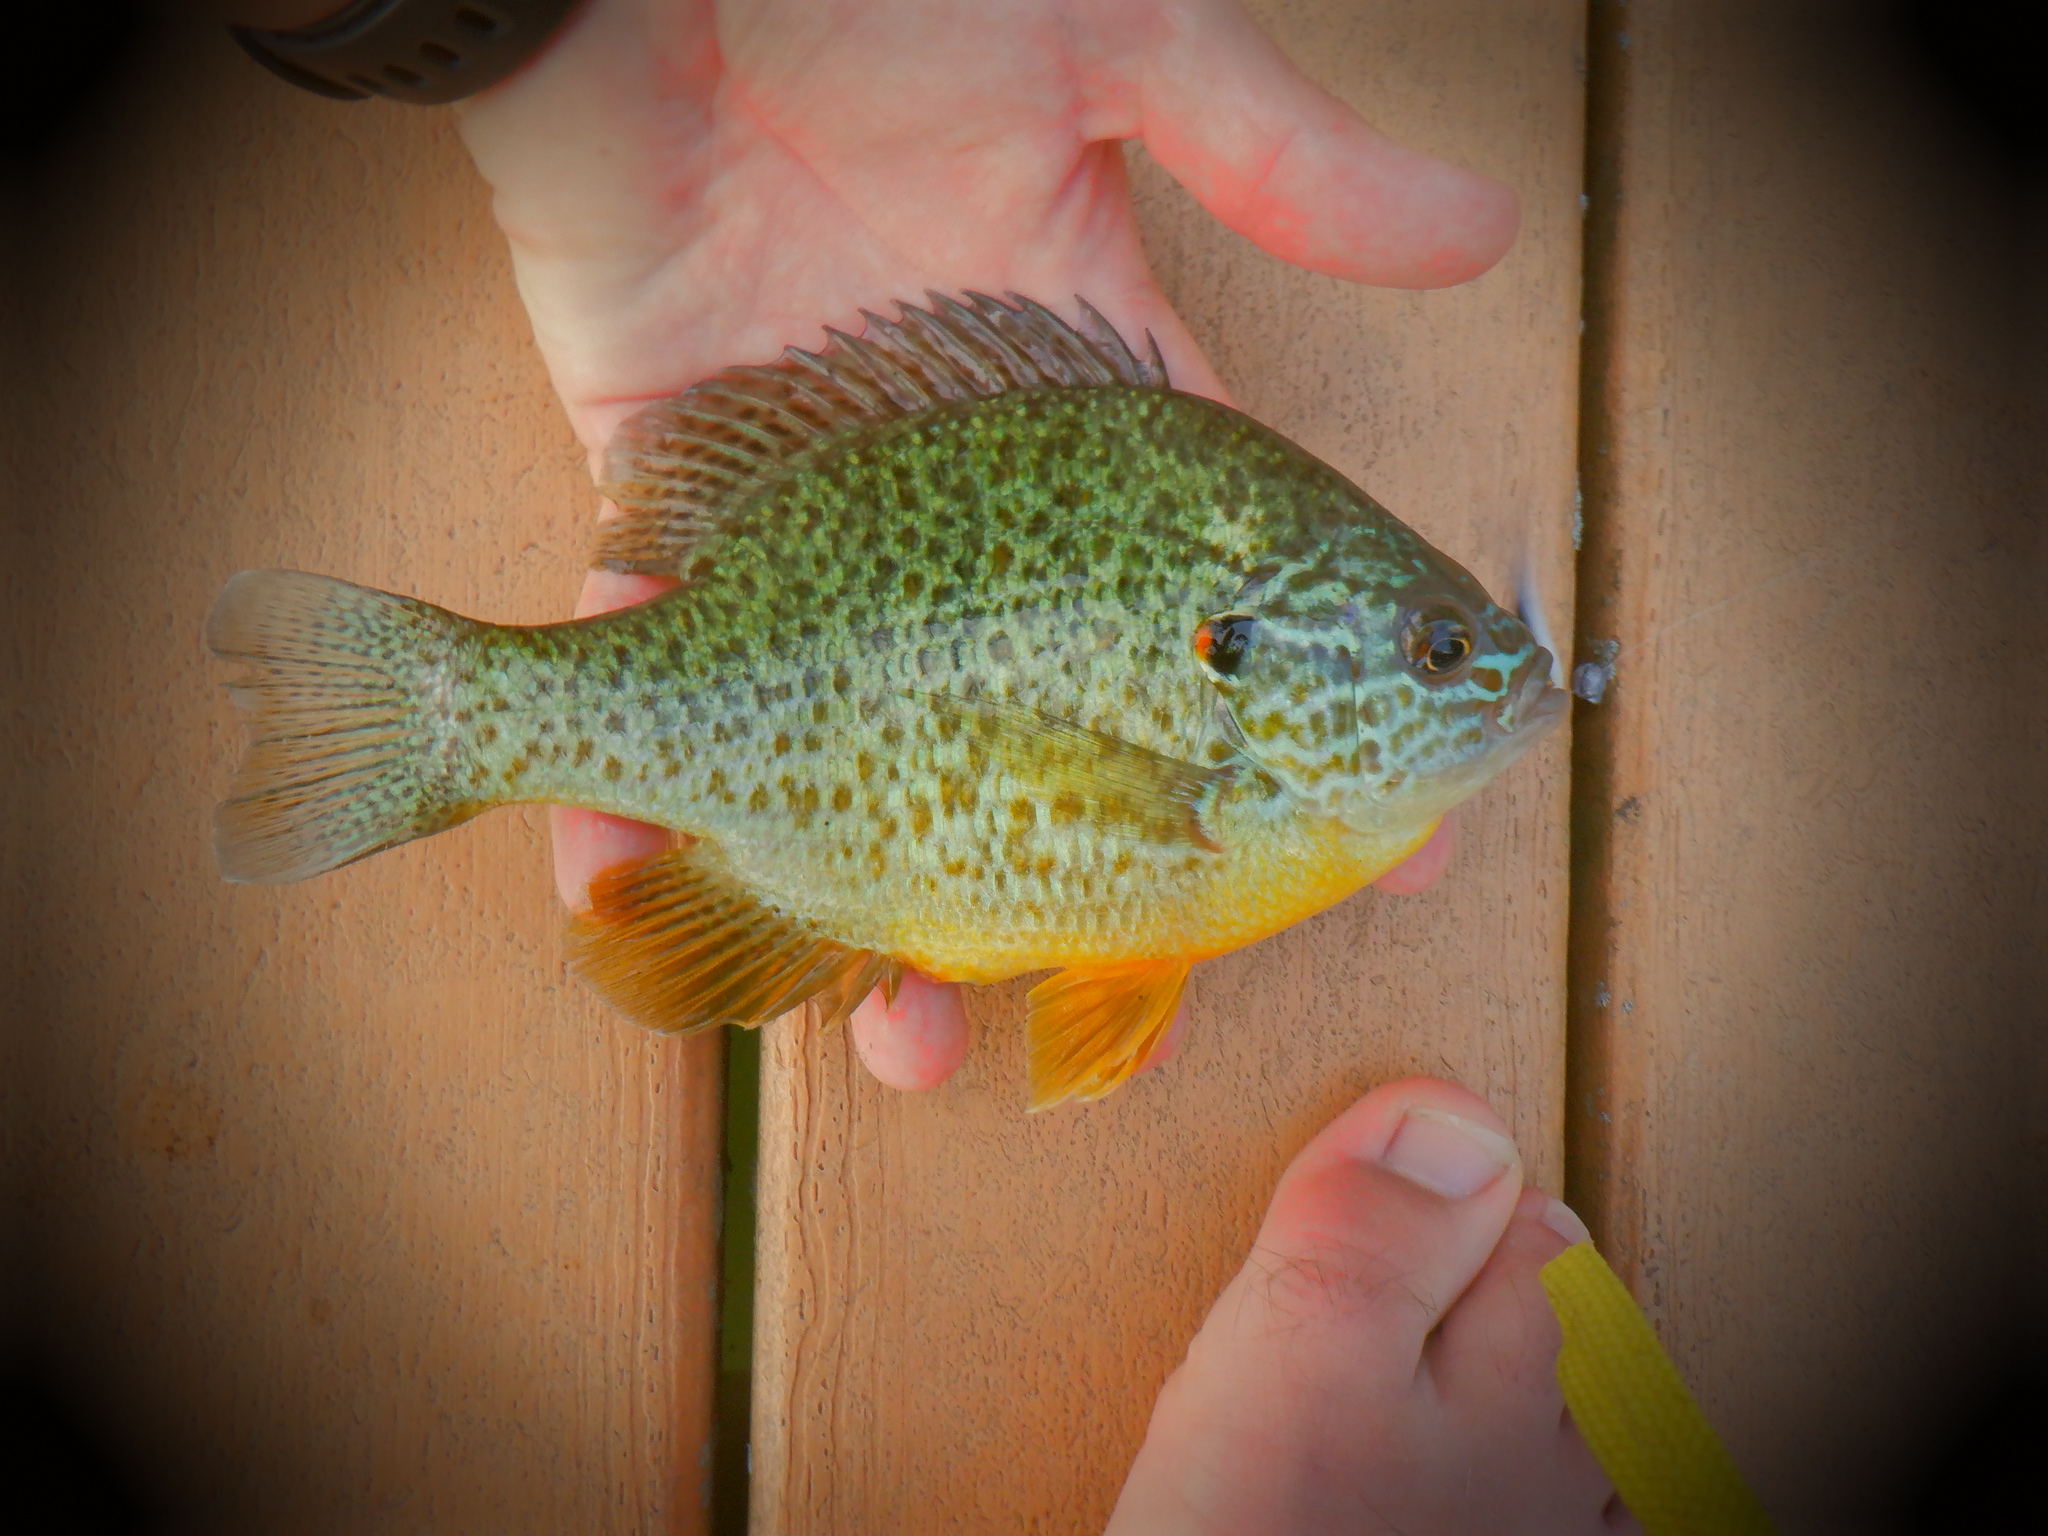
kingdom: Animalia
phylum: Chordata
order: Perciformes
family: Centrarchidae
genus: Lepomis
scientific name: Lepomis gibbosus
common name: Pumpkinseed
